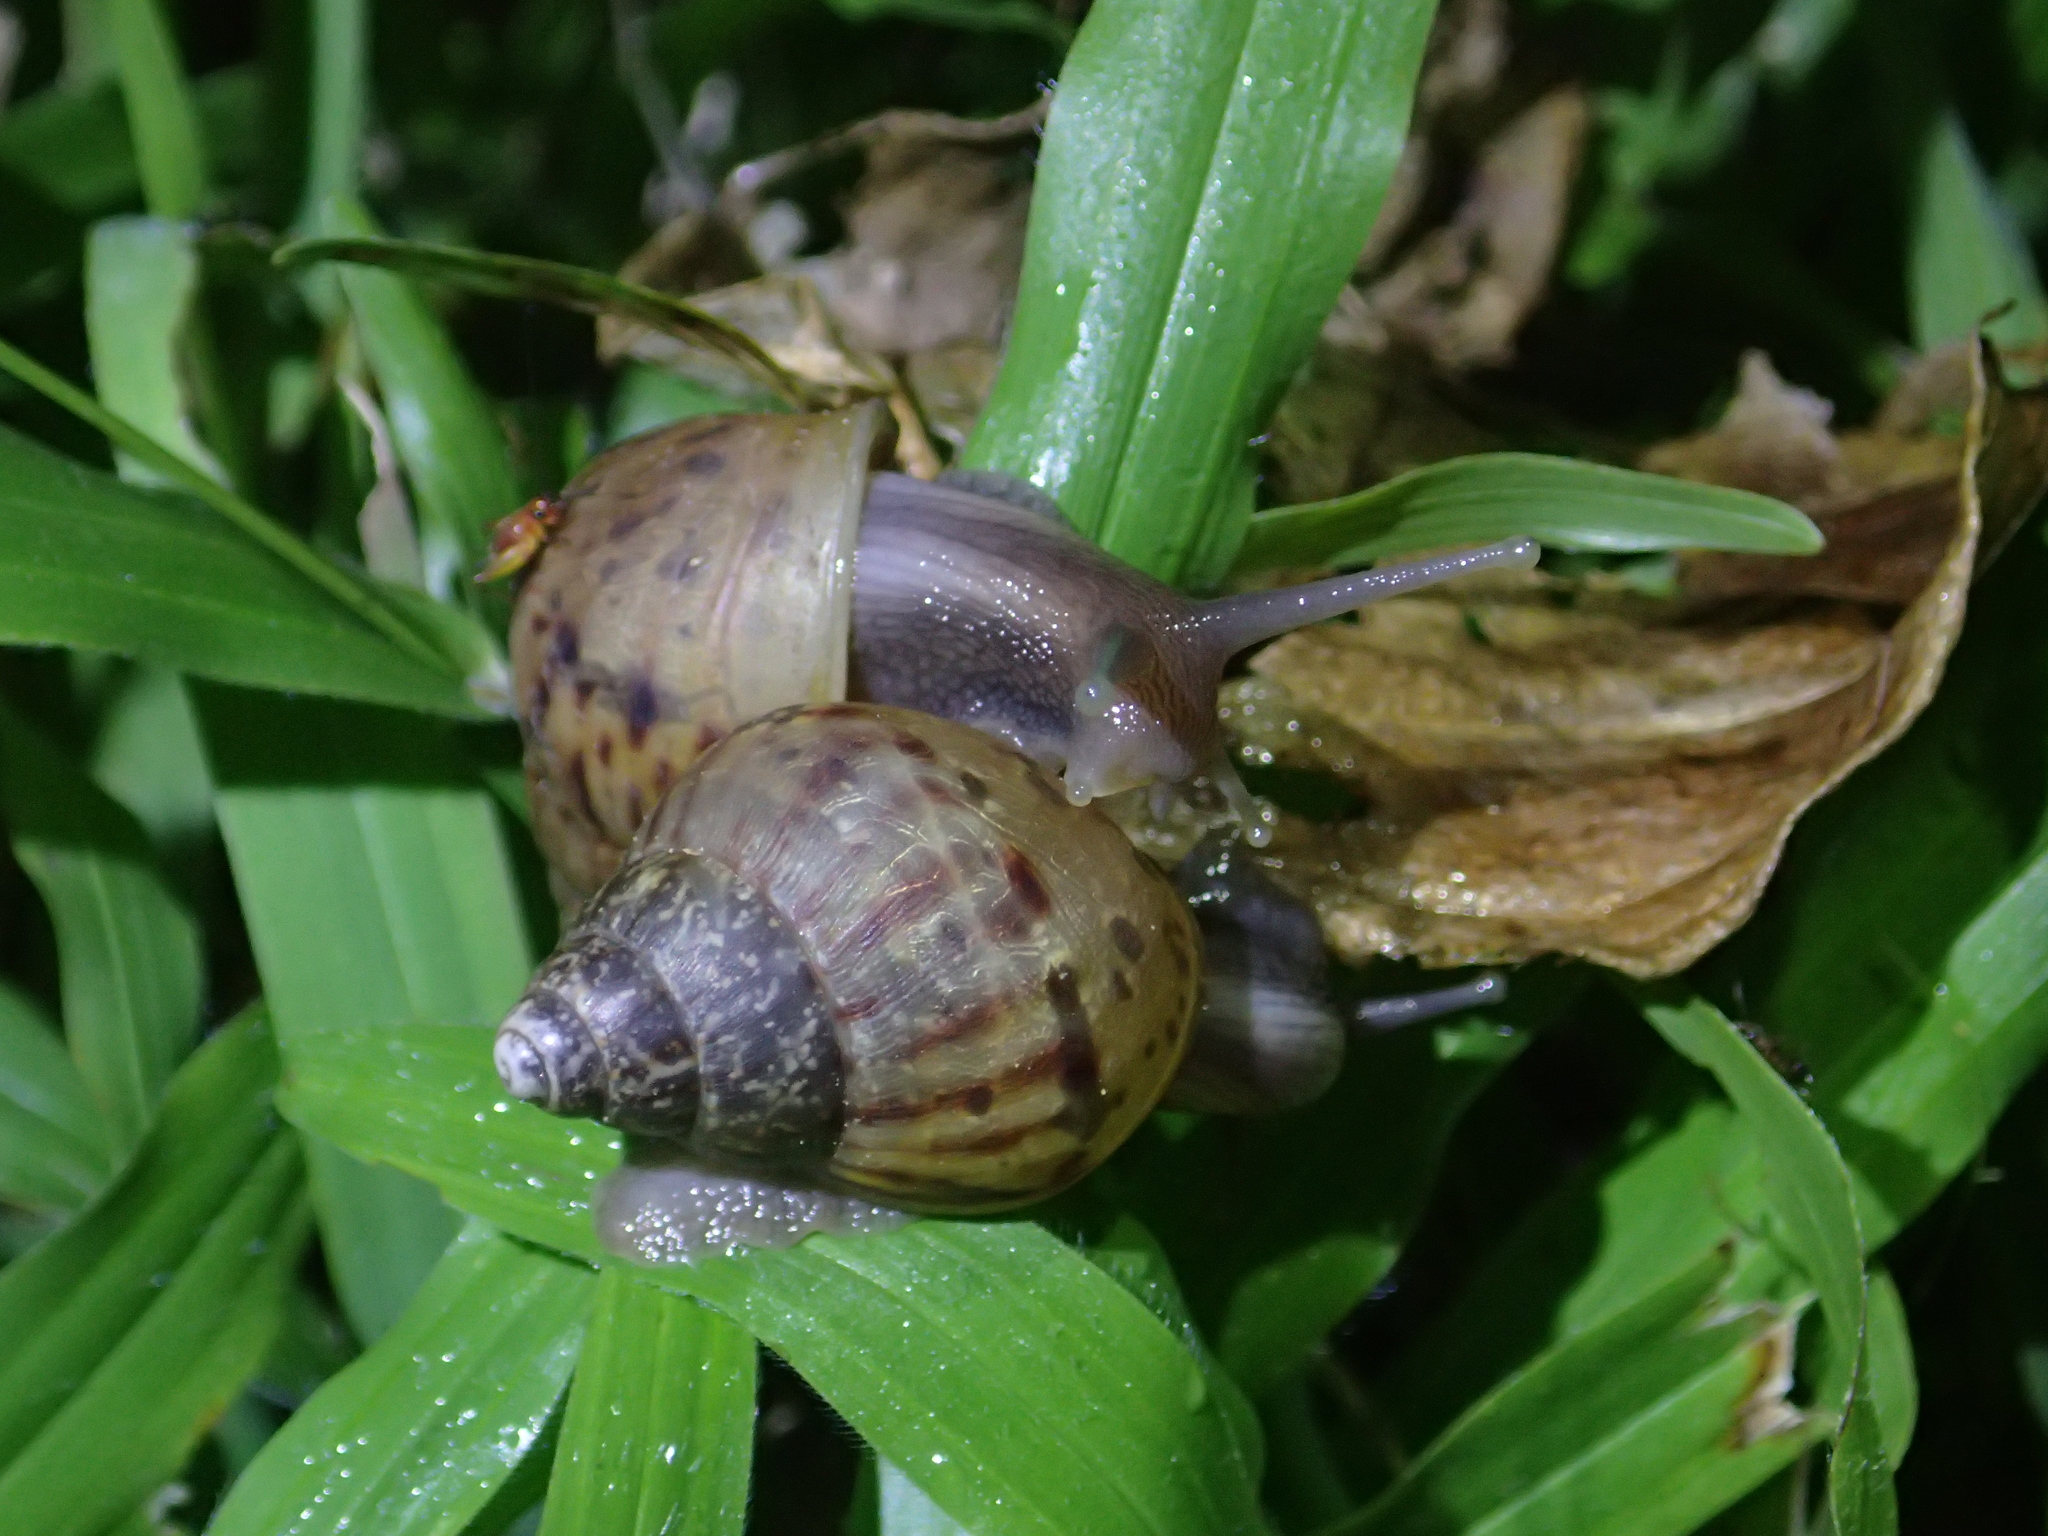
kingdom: Animalia
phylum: Mollusca
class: Gastropoda
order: Stylommatophora
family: Achatinidae
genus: Lissachatina
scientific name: Lissachatina fulica
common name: Giant african snail
